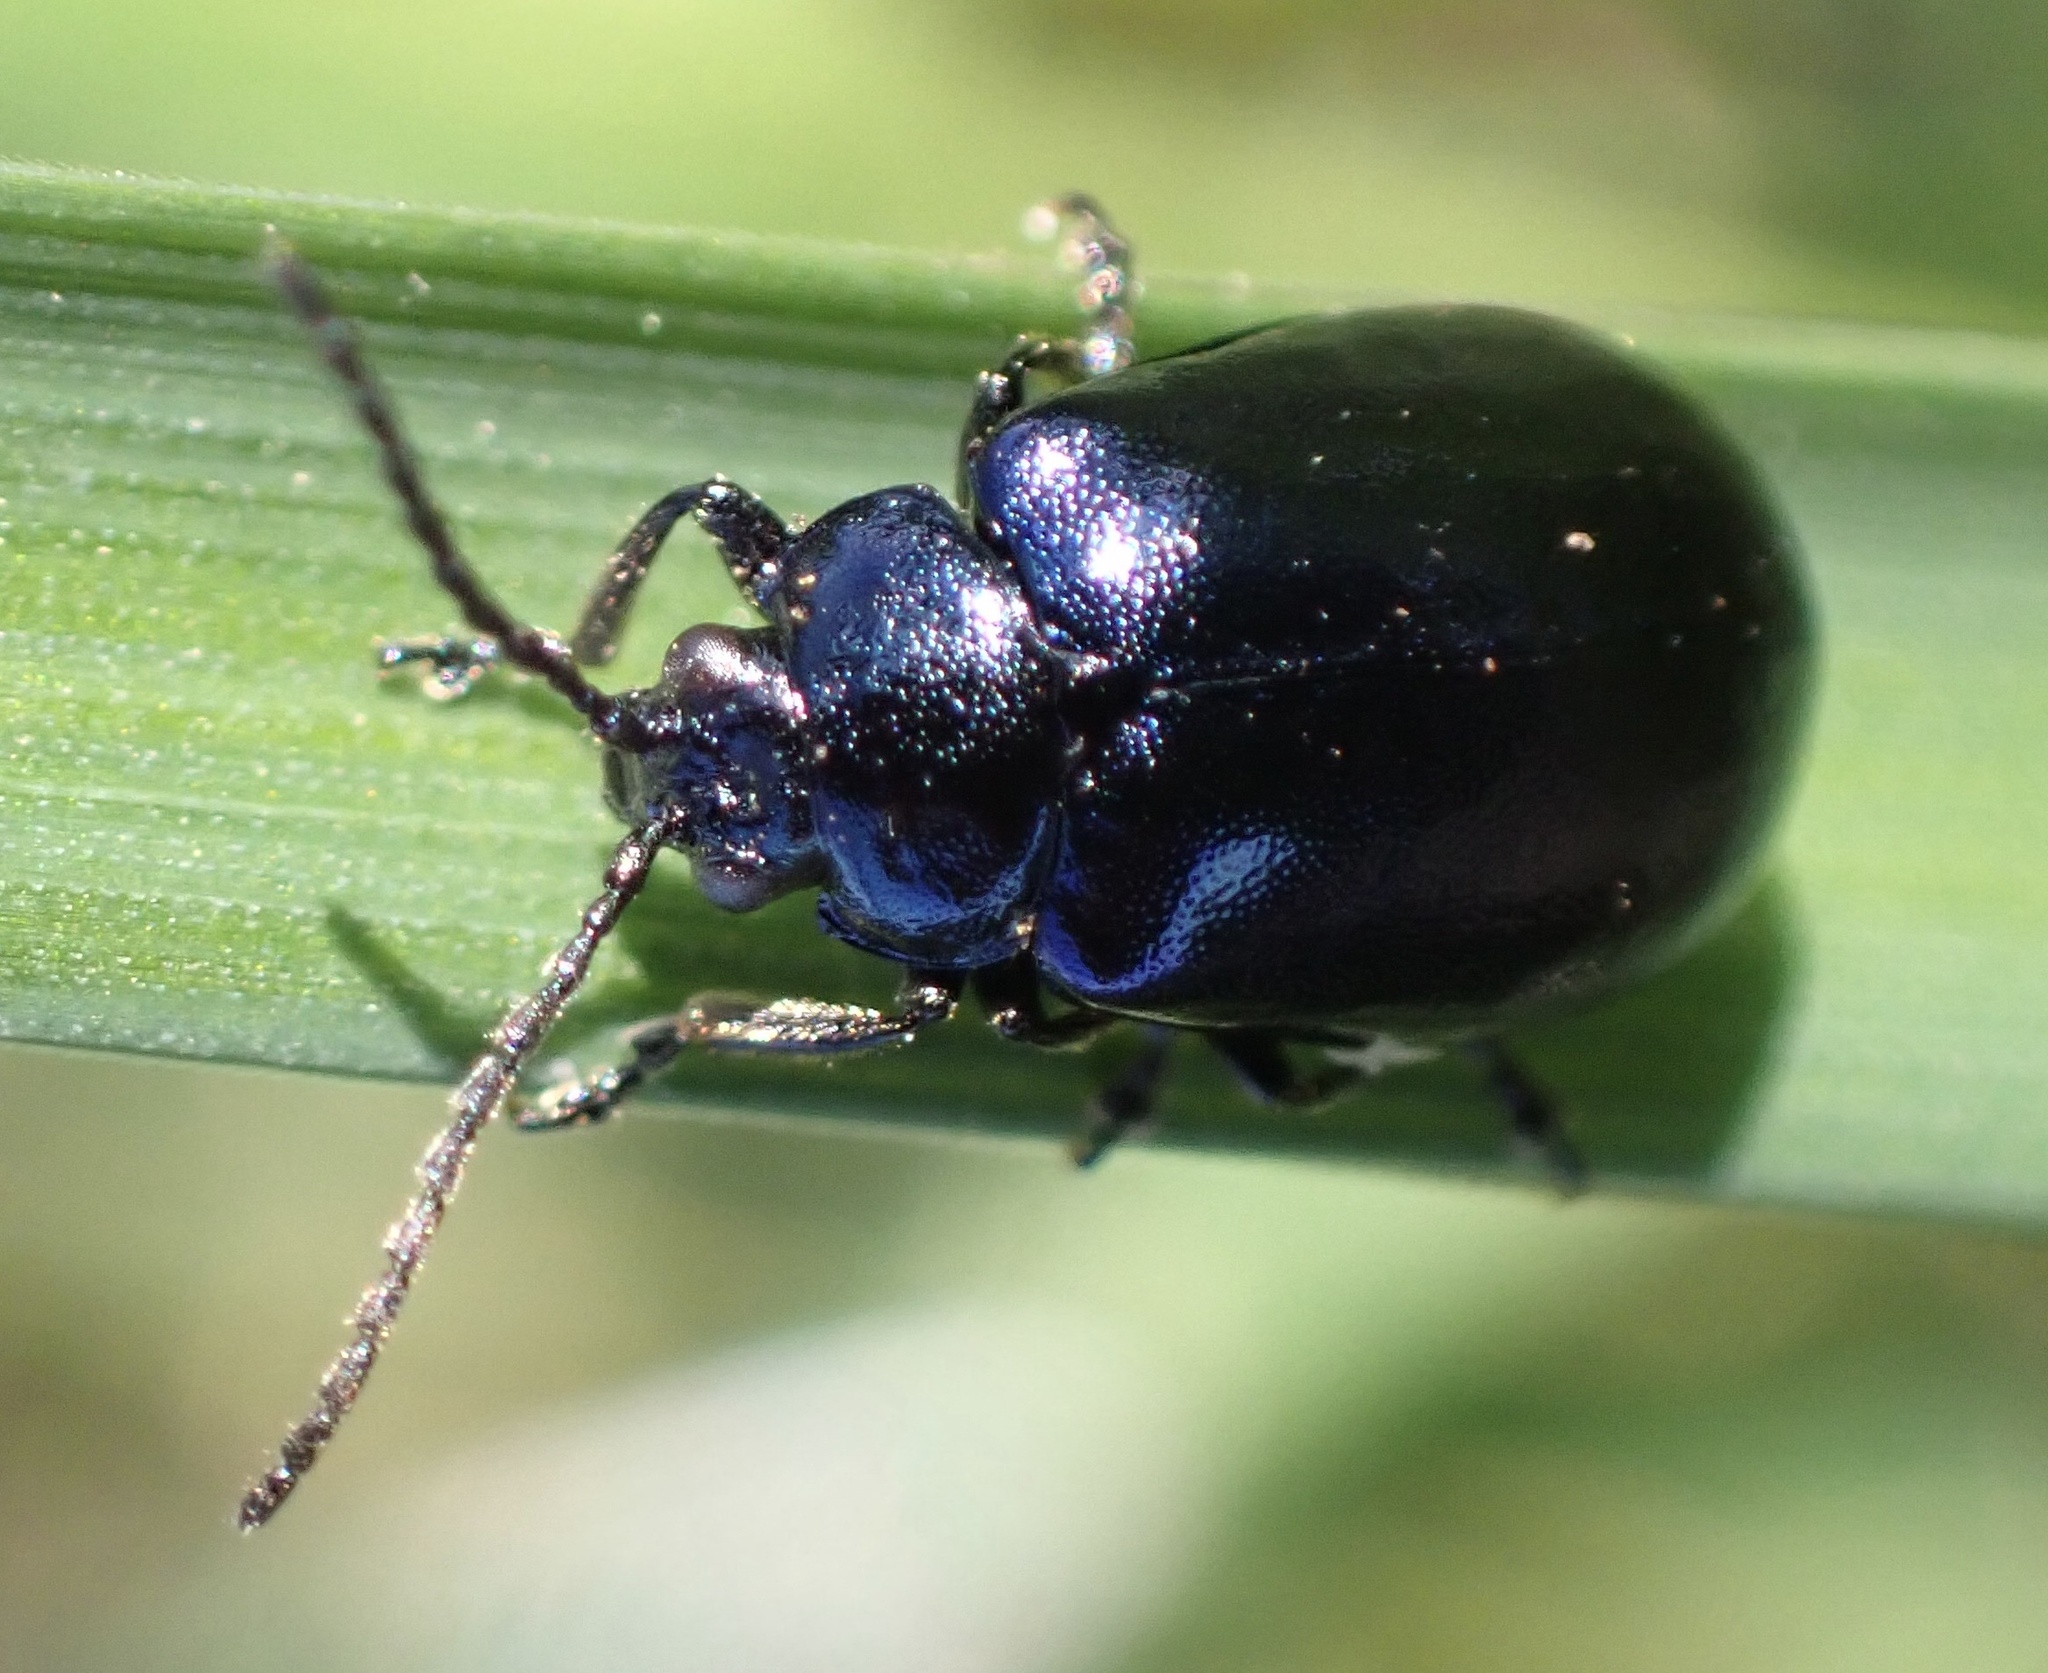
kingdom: Animalia
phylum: Arthropoda
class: Insecta
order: Coleoptera
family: Chrysomelidae
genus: Agelastica
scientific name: Agelastica alni
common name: Alder leaf beetle
